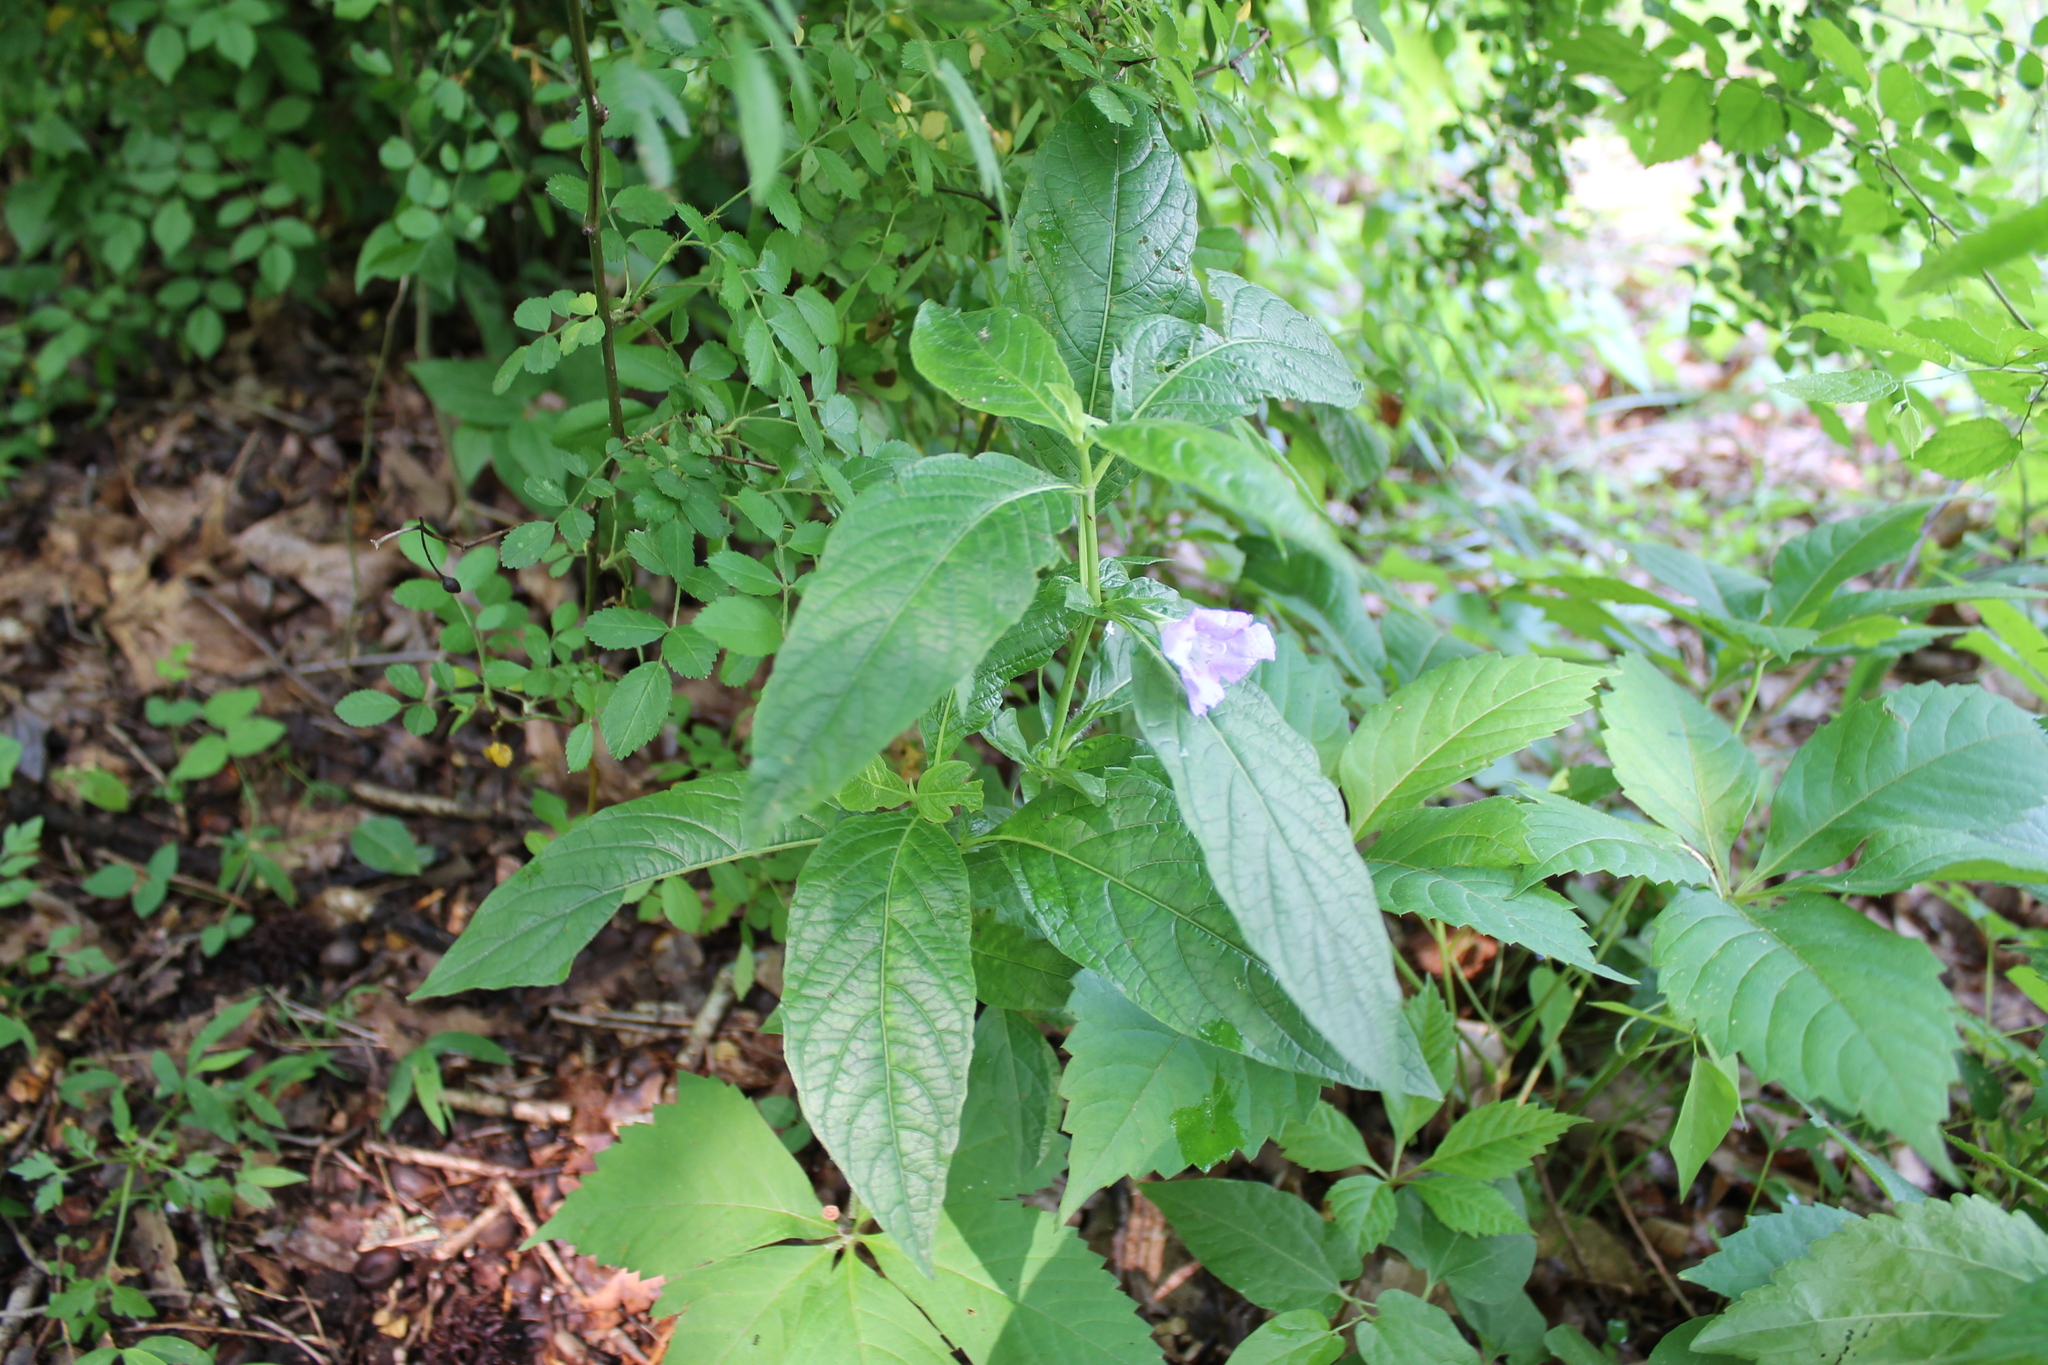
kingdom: Plantae
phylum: Tracheophyta
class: Magnoliopsida
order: Lamiales
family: Acanthaceae
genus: Ruellia
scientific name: Ruellia strepens
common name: Limestone wild petunia
